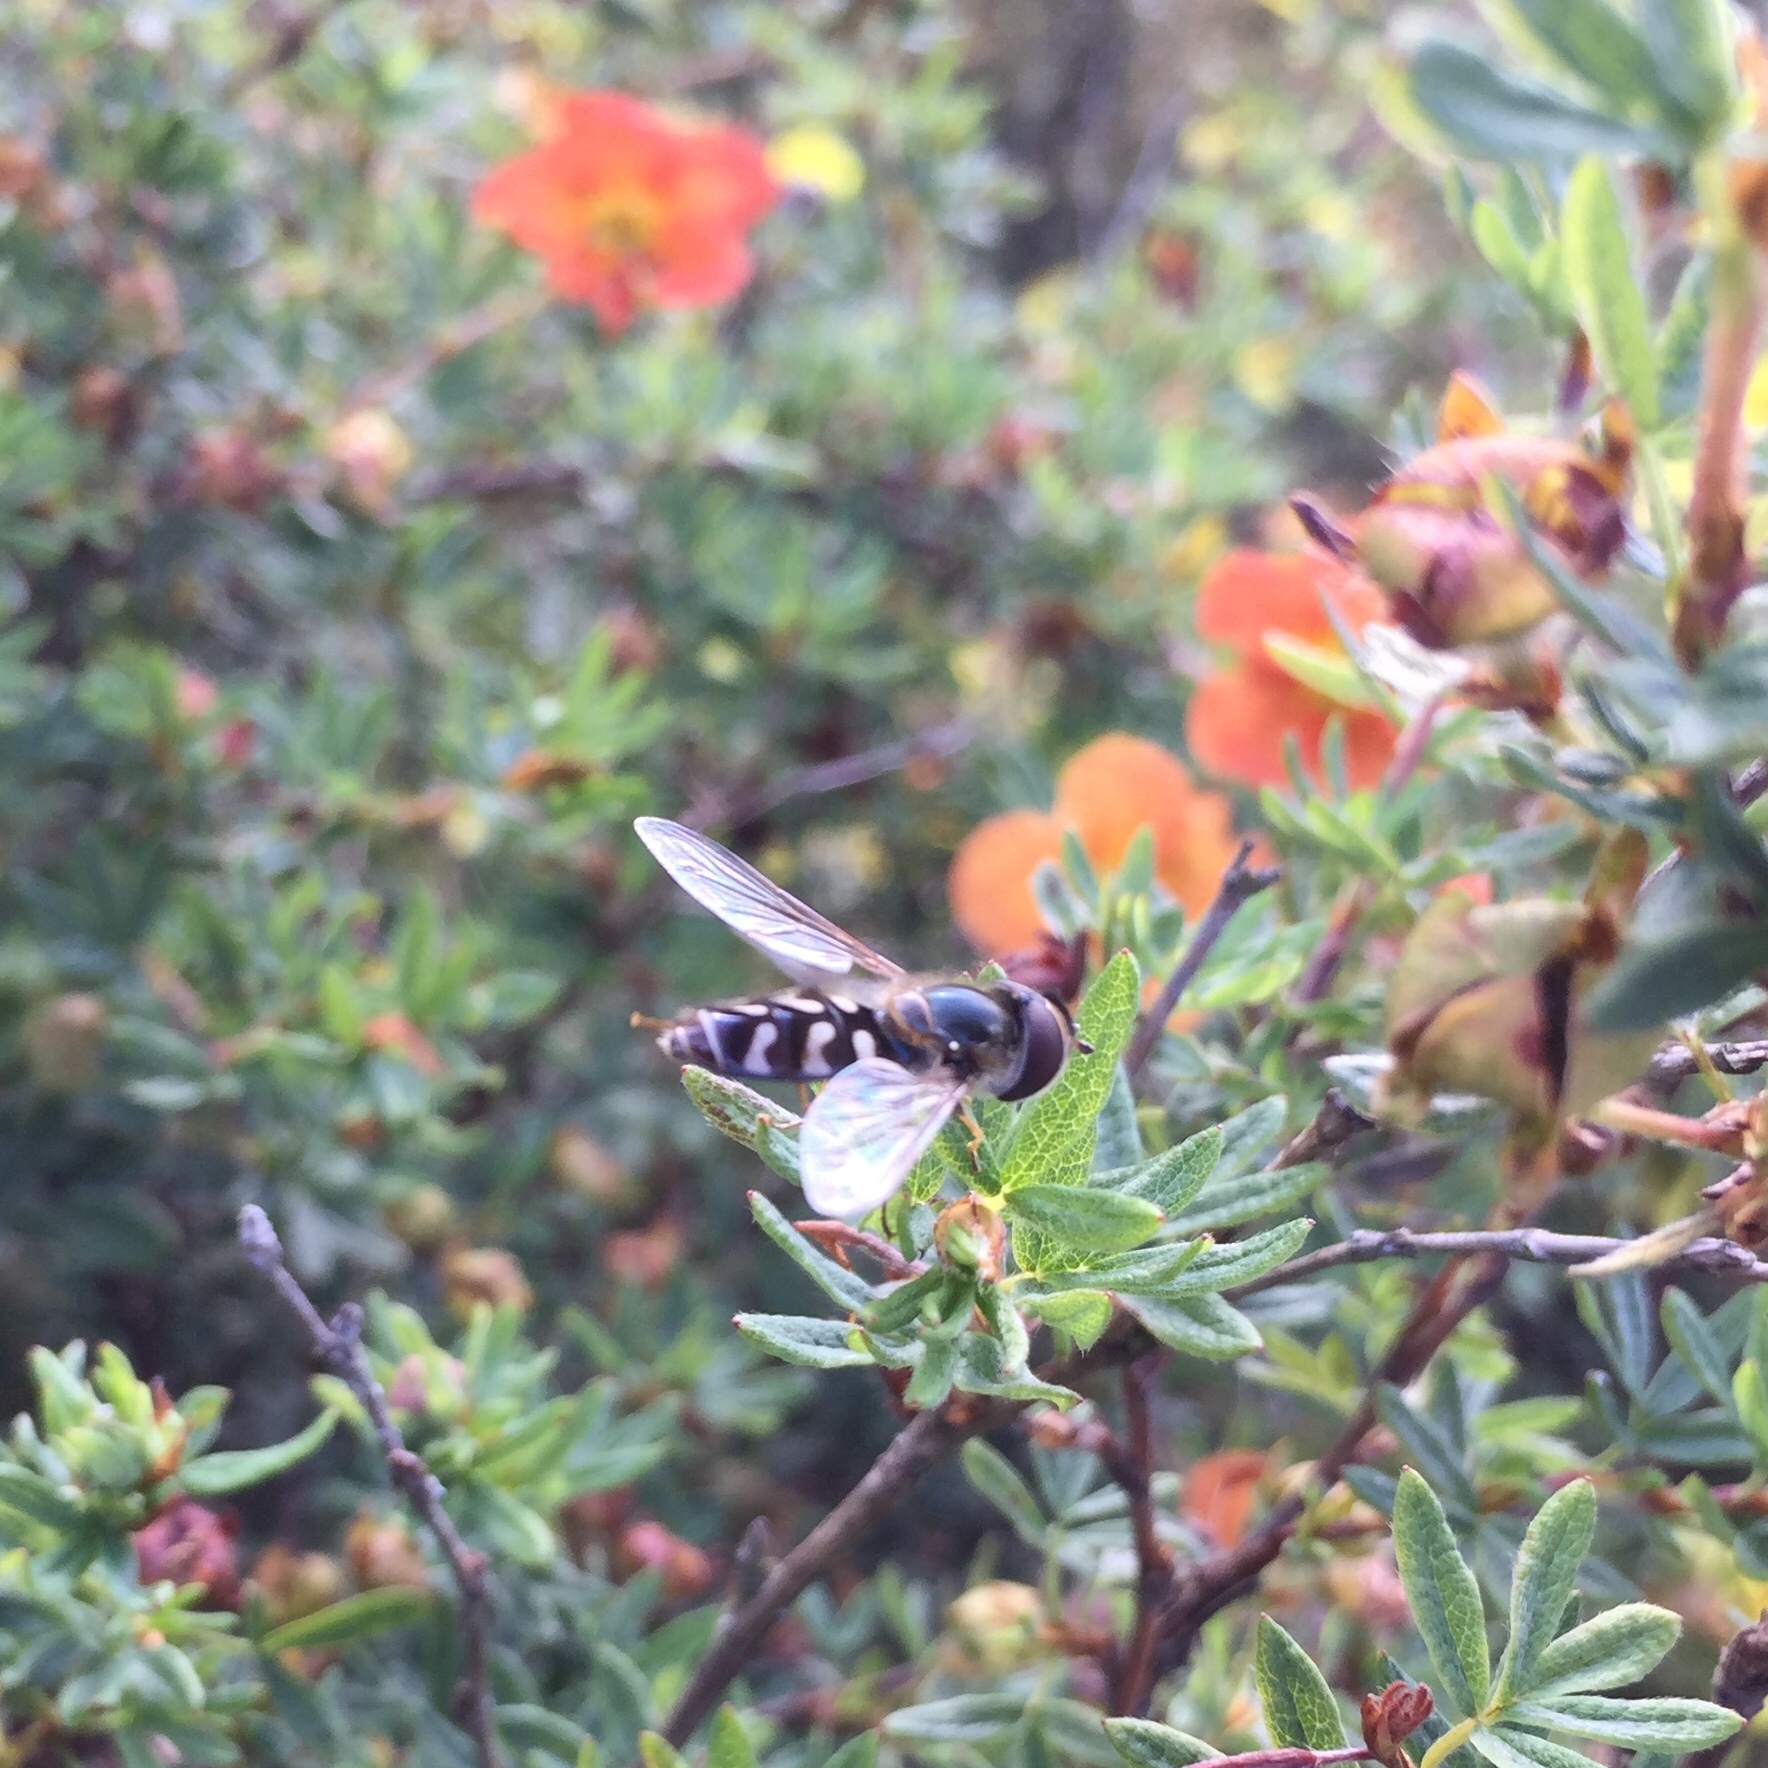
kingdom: Animalia
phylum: Arthropoda
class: Insecta
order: Diptera
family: Syrphidae
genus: Scaeva
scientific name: Scaeva pyrastri
